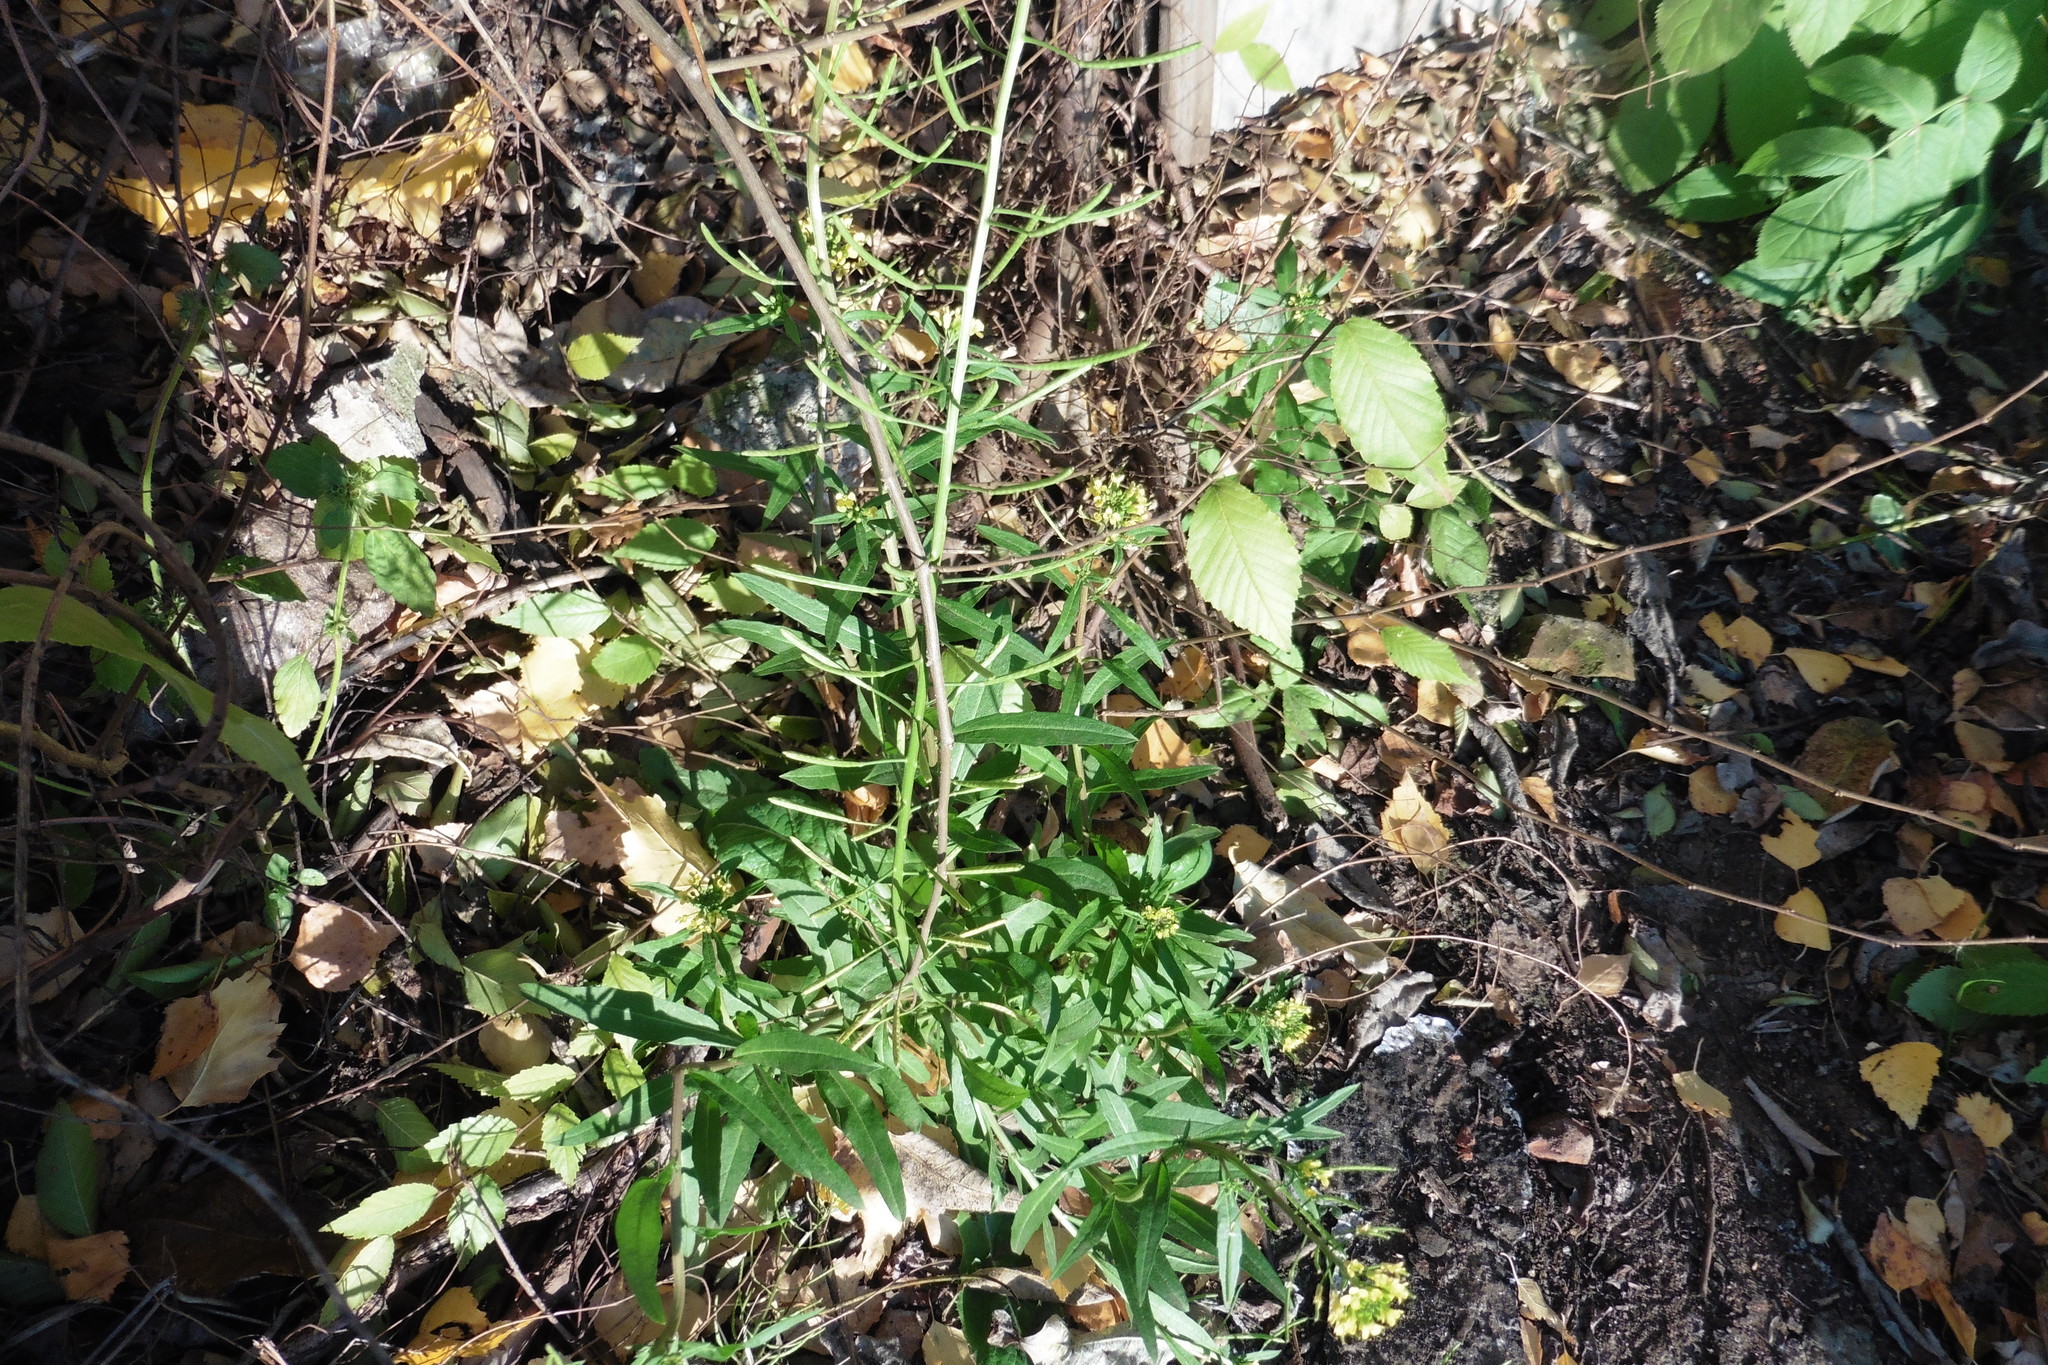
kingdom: Plantae
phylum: Tracheophyta
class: Magnoliopsida
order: Brassicales
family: Brassicaceae
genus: Erysimum
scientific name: Erysimum cheiranthoides
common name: Treacle mustard
